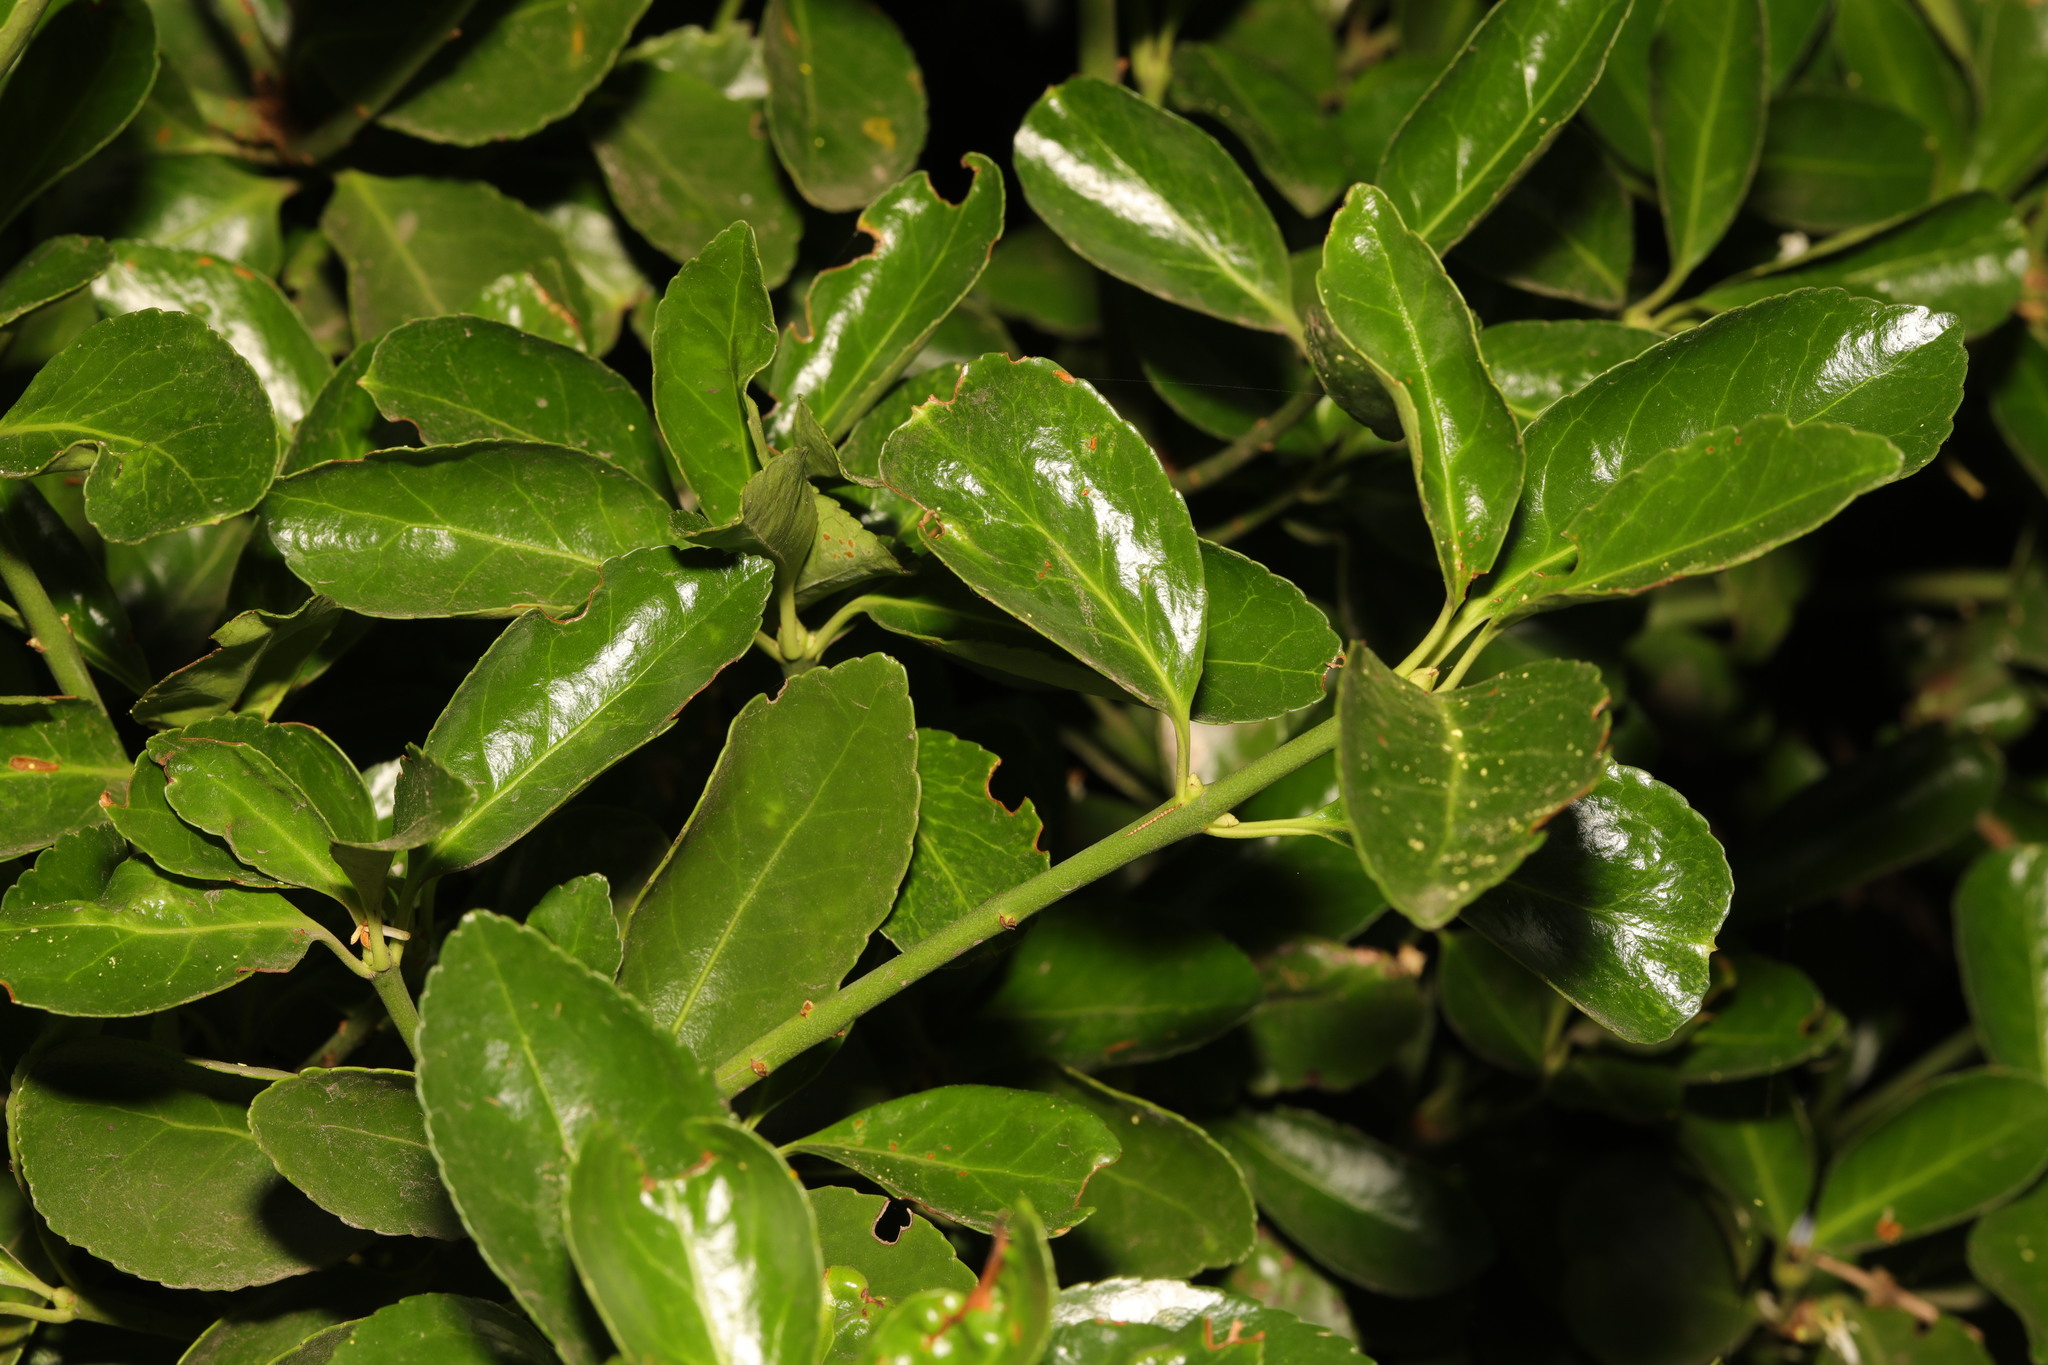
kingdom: Plantae
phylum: Tracheophyta
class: Magnoliopsida
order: Celastrales
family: Celastraceae
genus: Euonymus
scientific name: Euonymus japonicus
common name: Japanese spindletree
